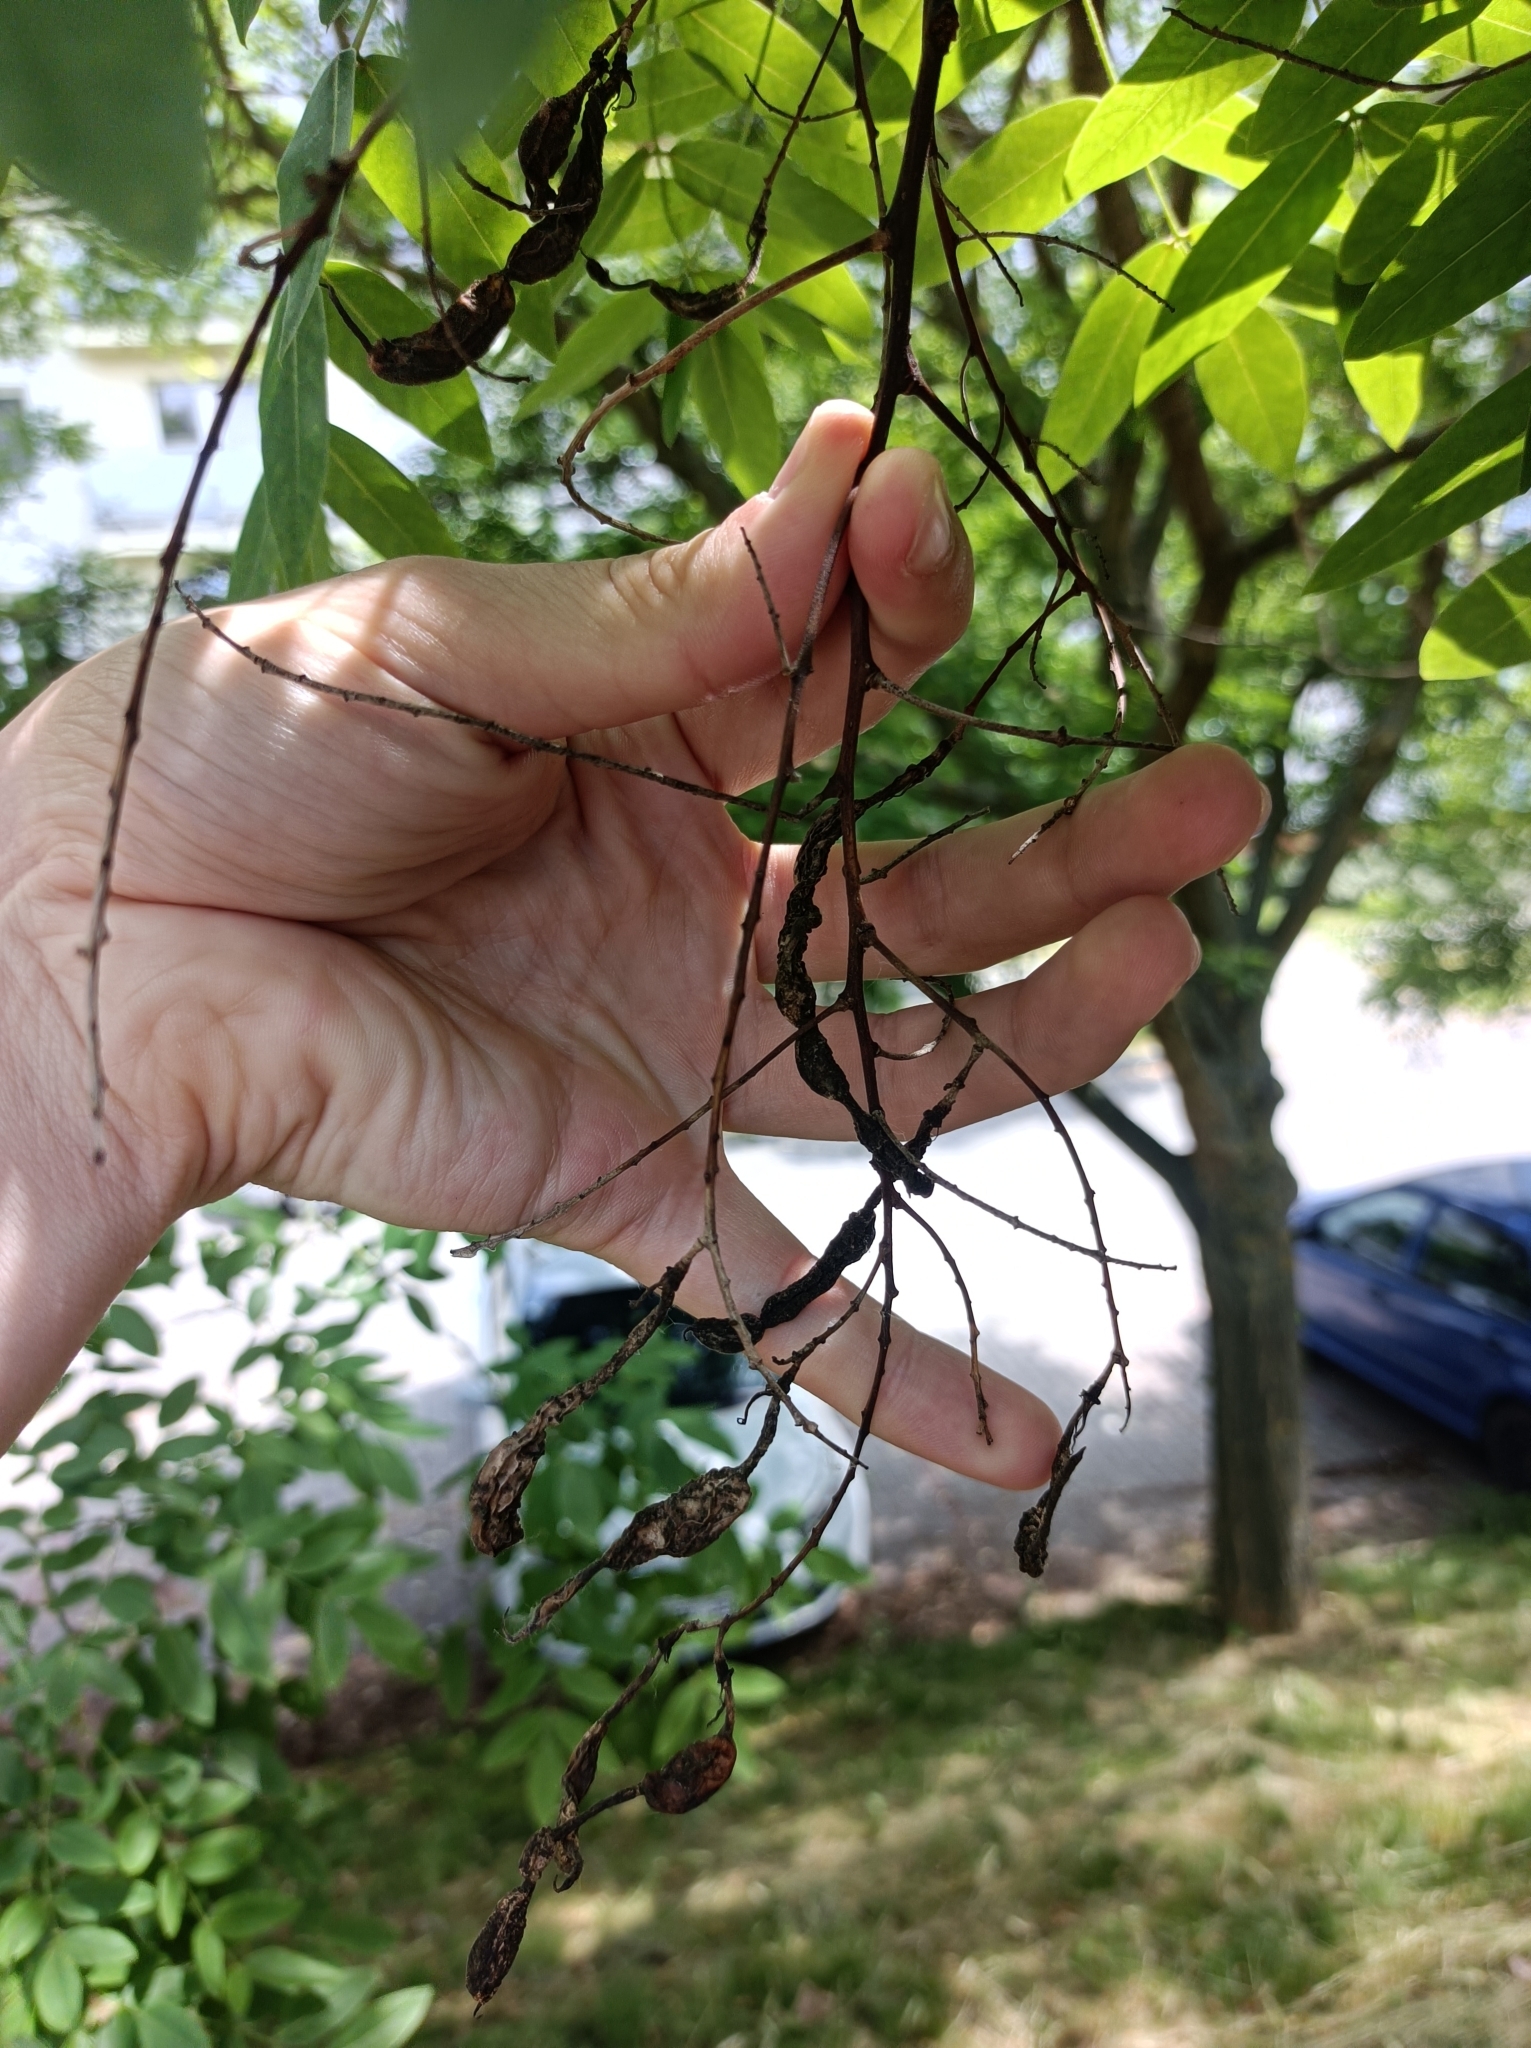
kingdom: Plantae
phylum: Tracheophyta
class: Magnoliopsida
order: Fabales
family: Fabaceae
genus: Styphnolobium
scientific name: Styphnolobium japonicum
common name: Chinese scholartree
